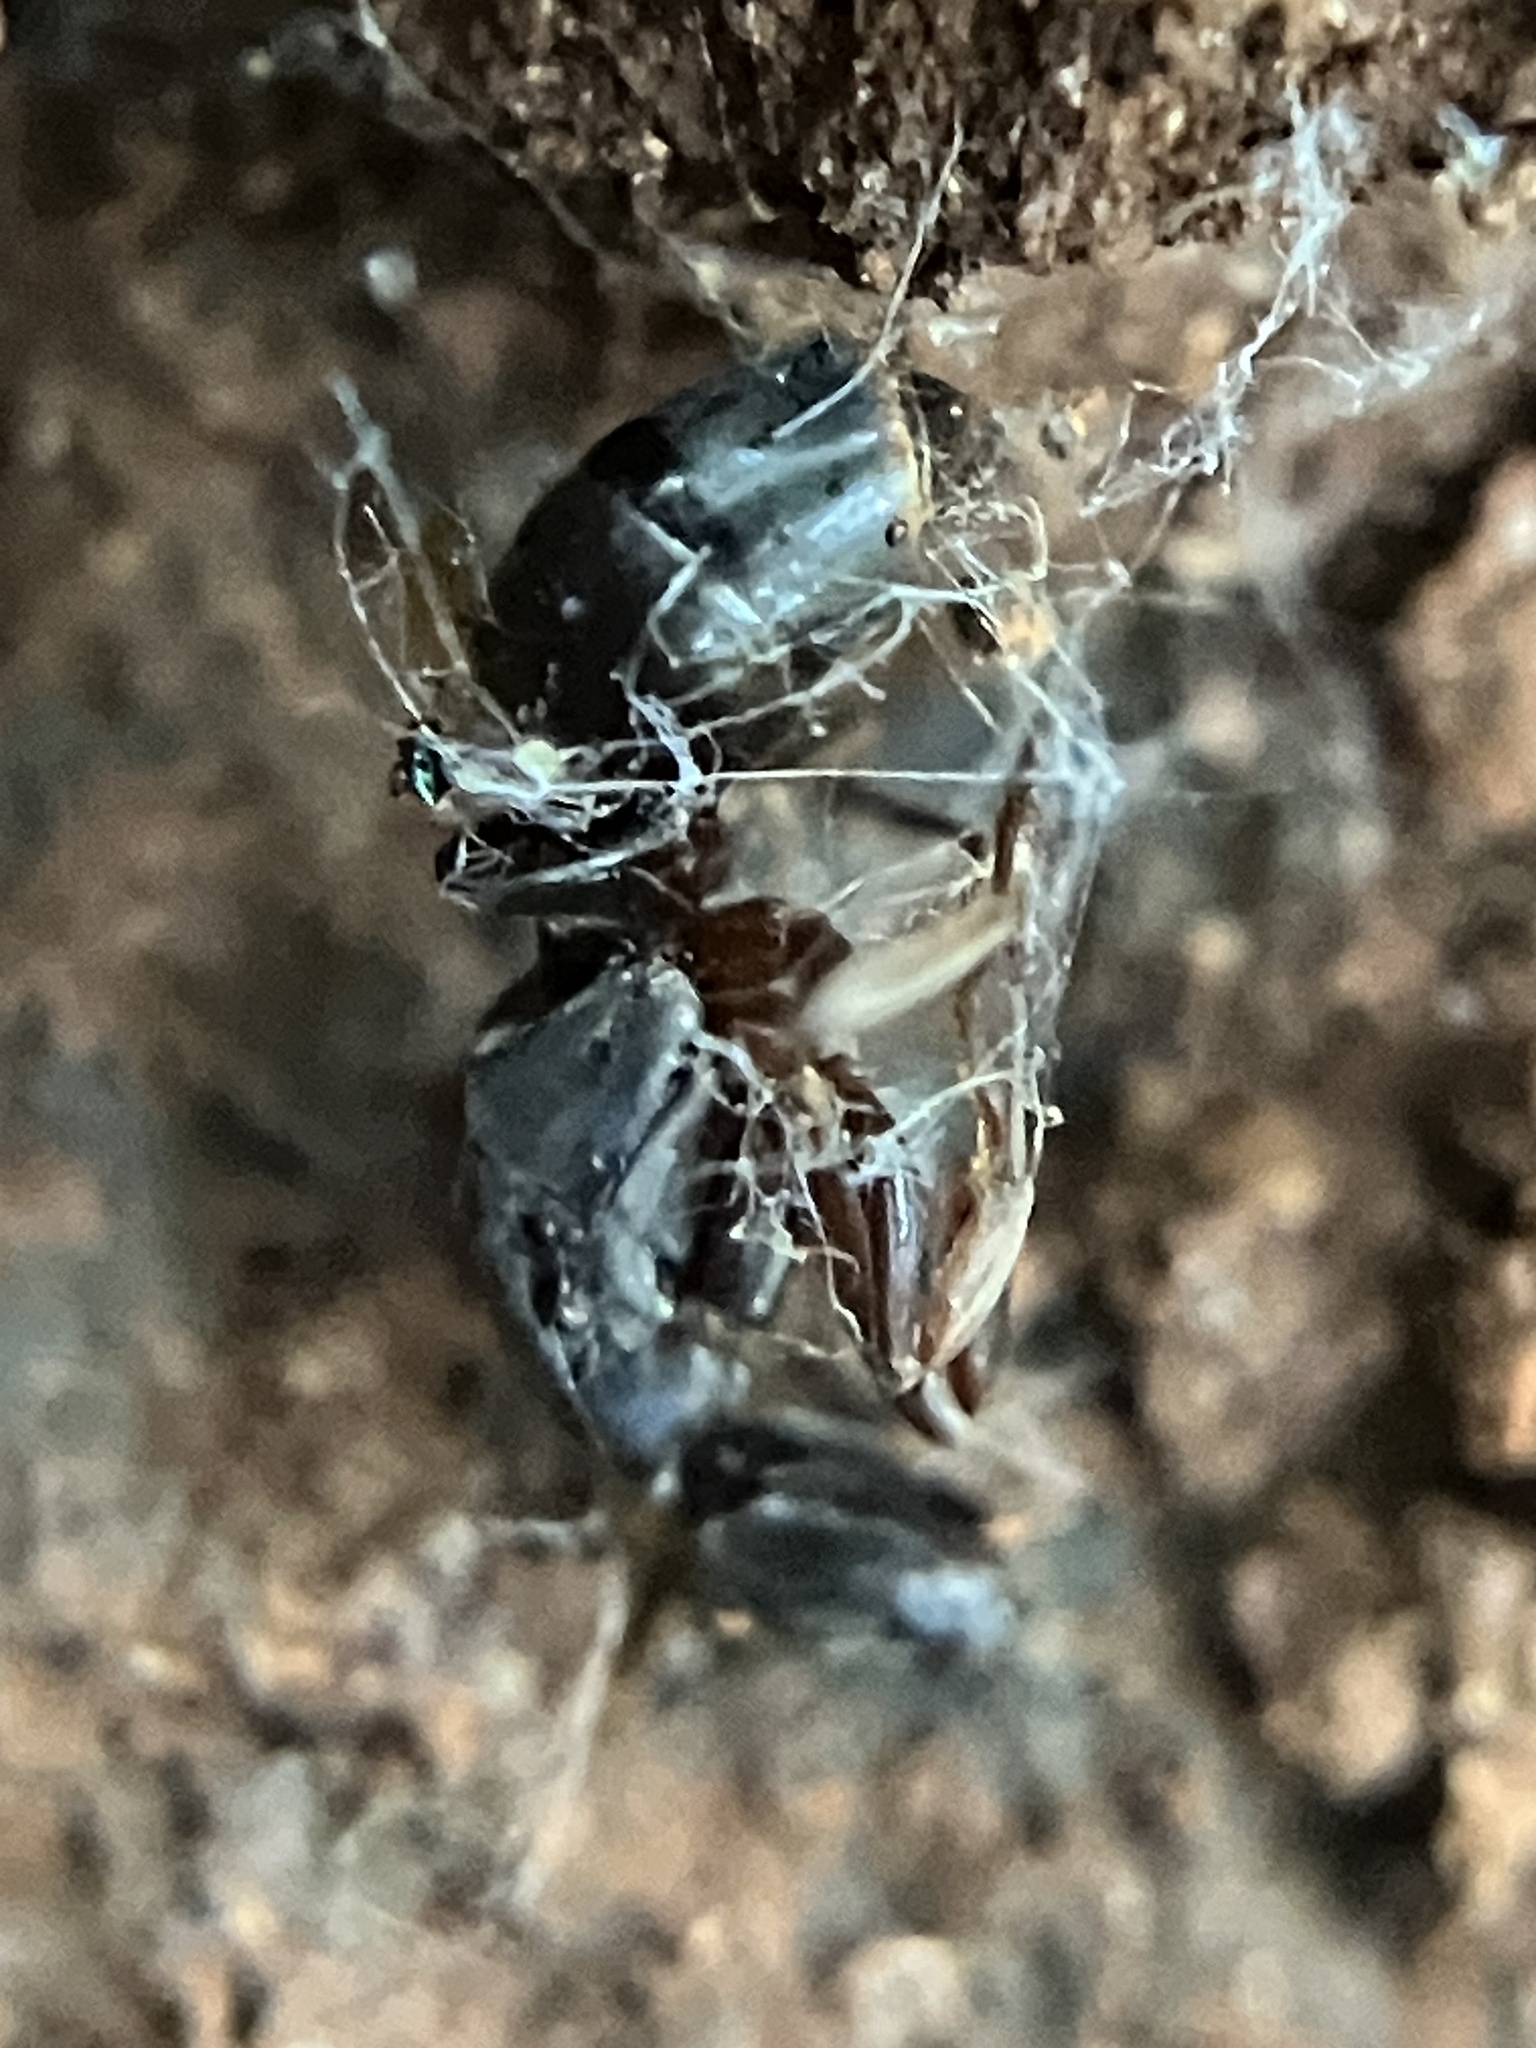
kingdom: Animalia
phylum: Arthropoda
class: Insecta
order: Hymenoptera
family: Formicidae
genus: Mesoponera
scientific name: Mesoponera melanaria
